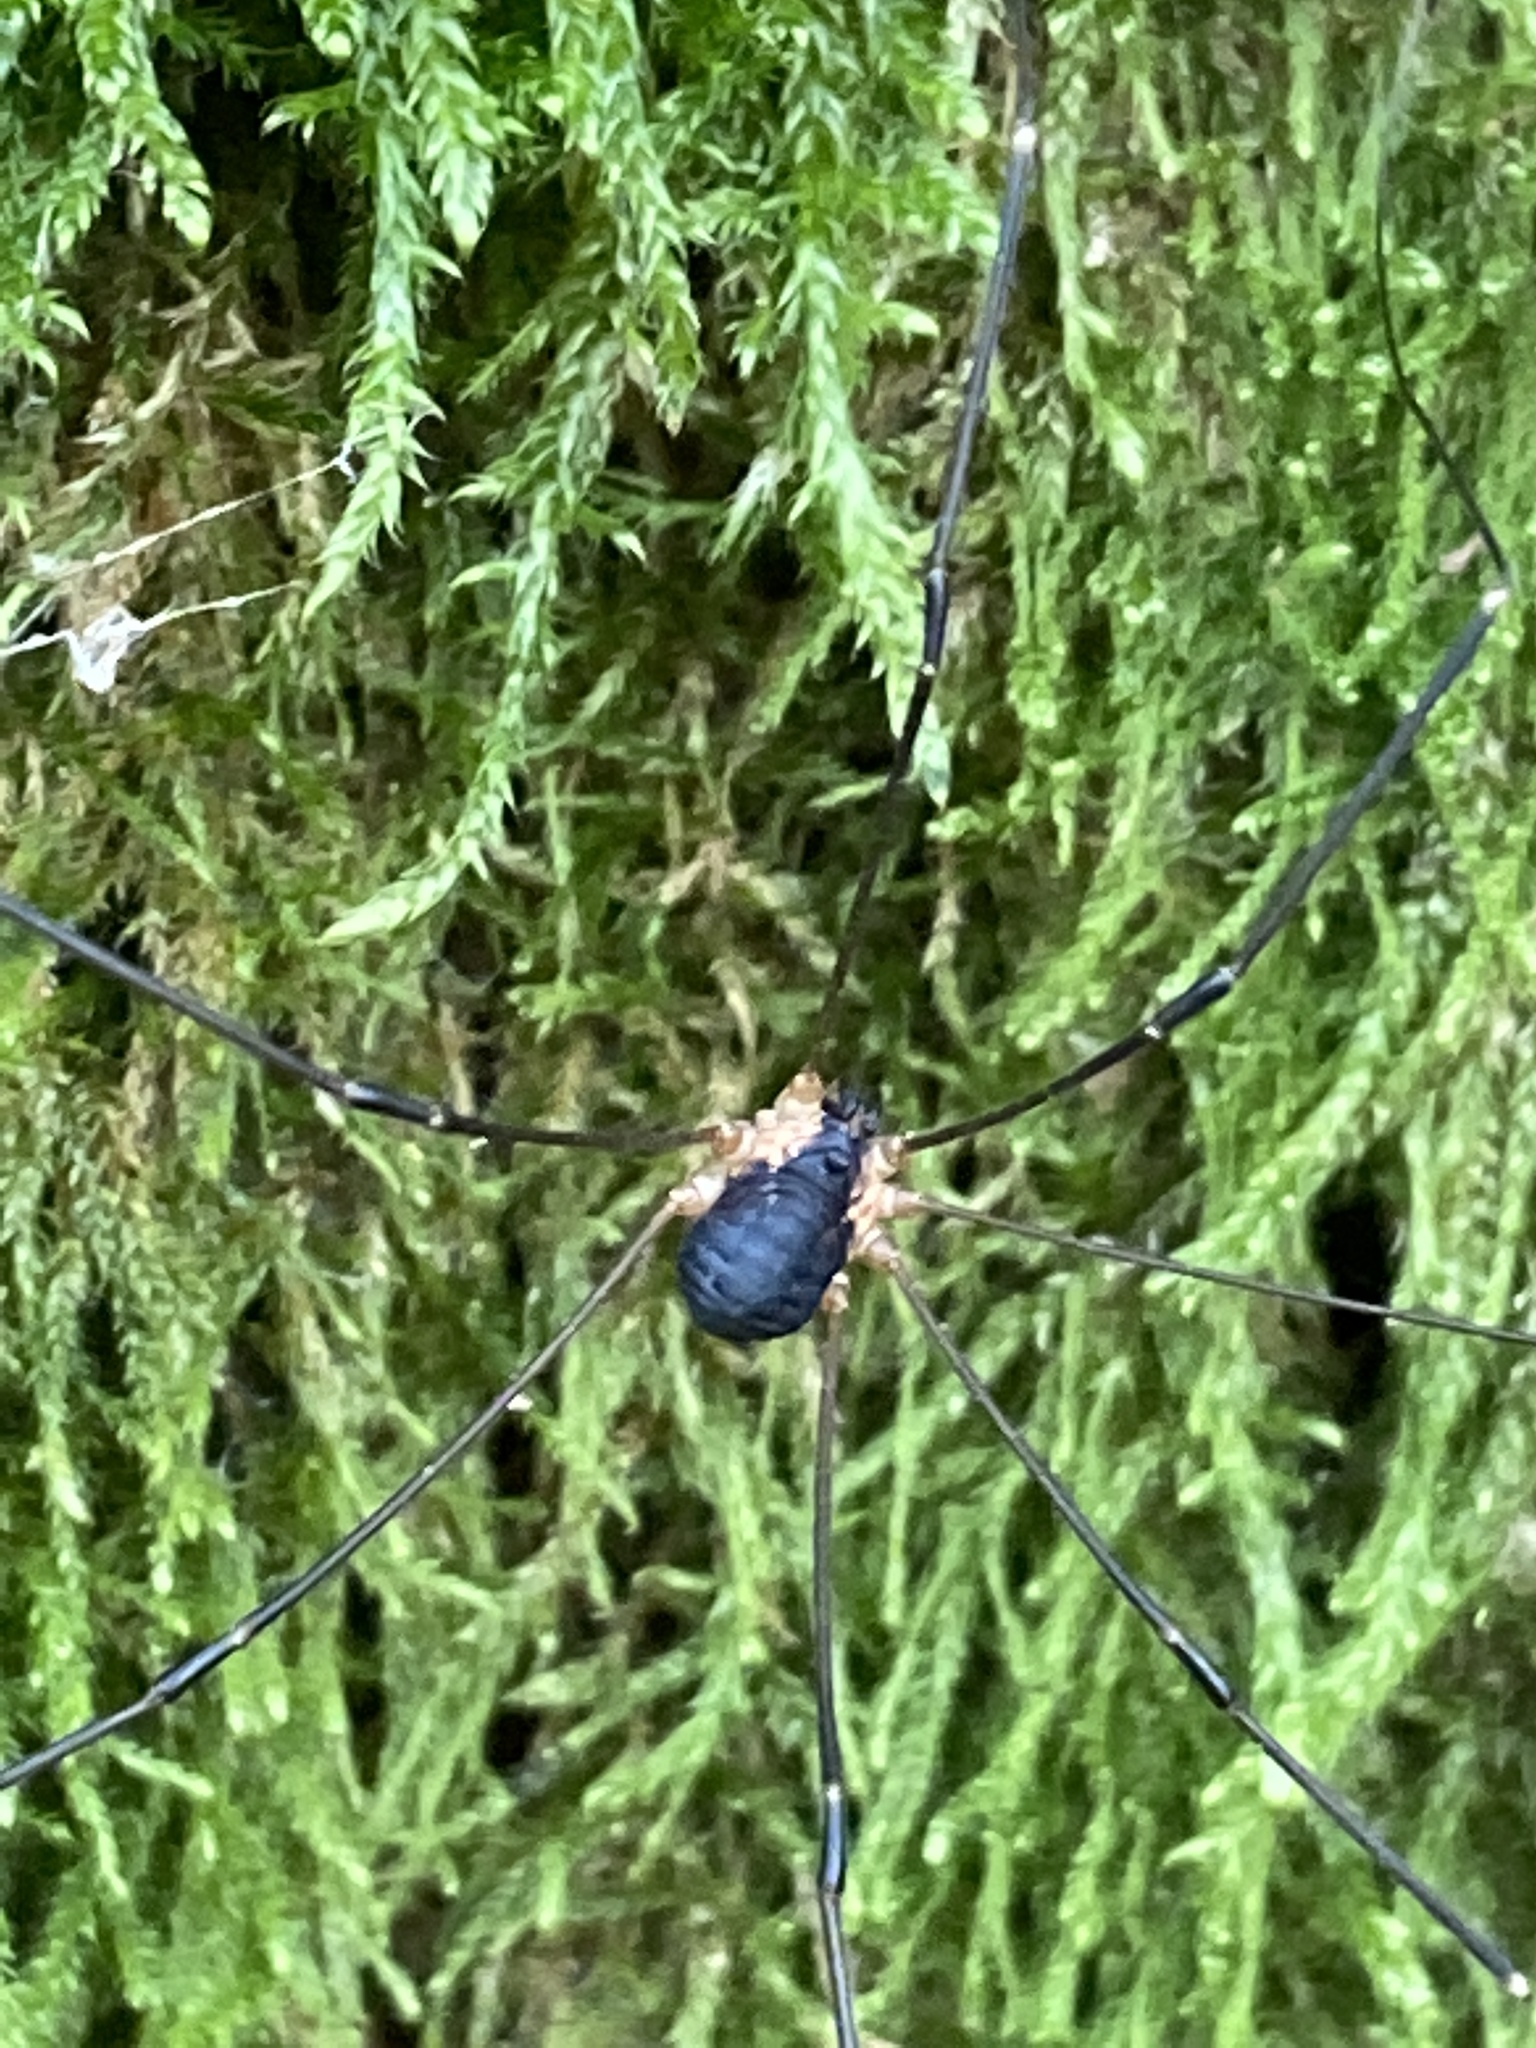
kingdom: Animalia
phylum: Arthropoda
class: Arachnida
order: Opiliones
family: Sclerosomatidae
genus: Leiobunum
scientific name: Leiobunum rupestre
